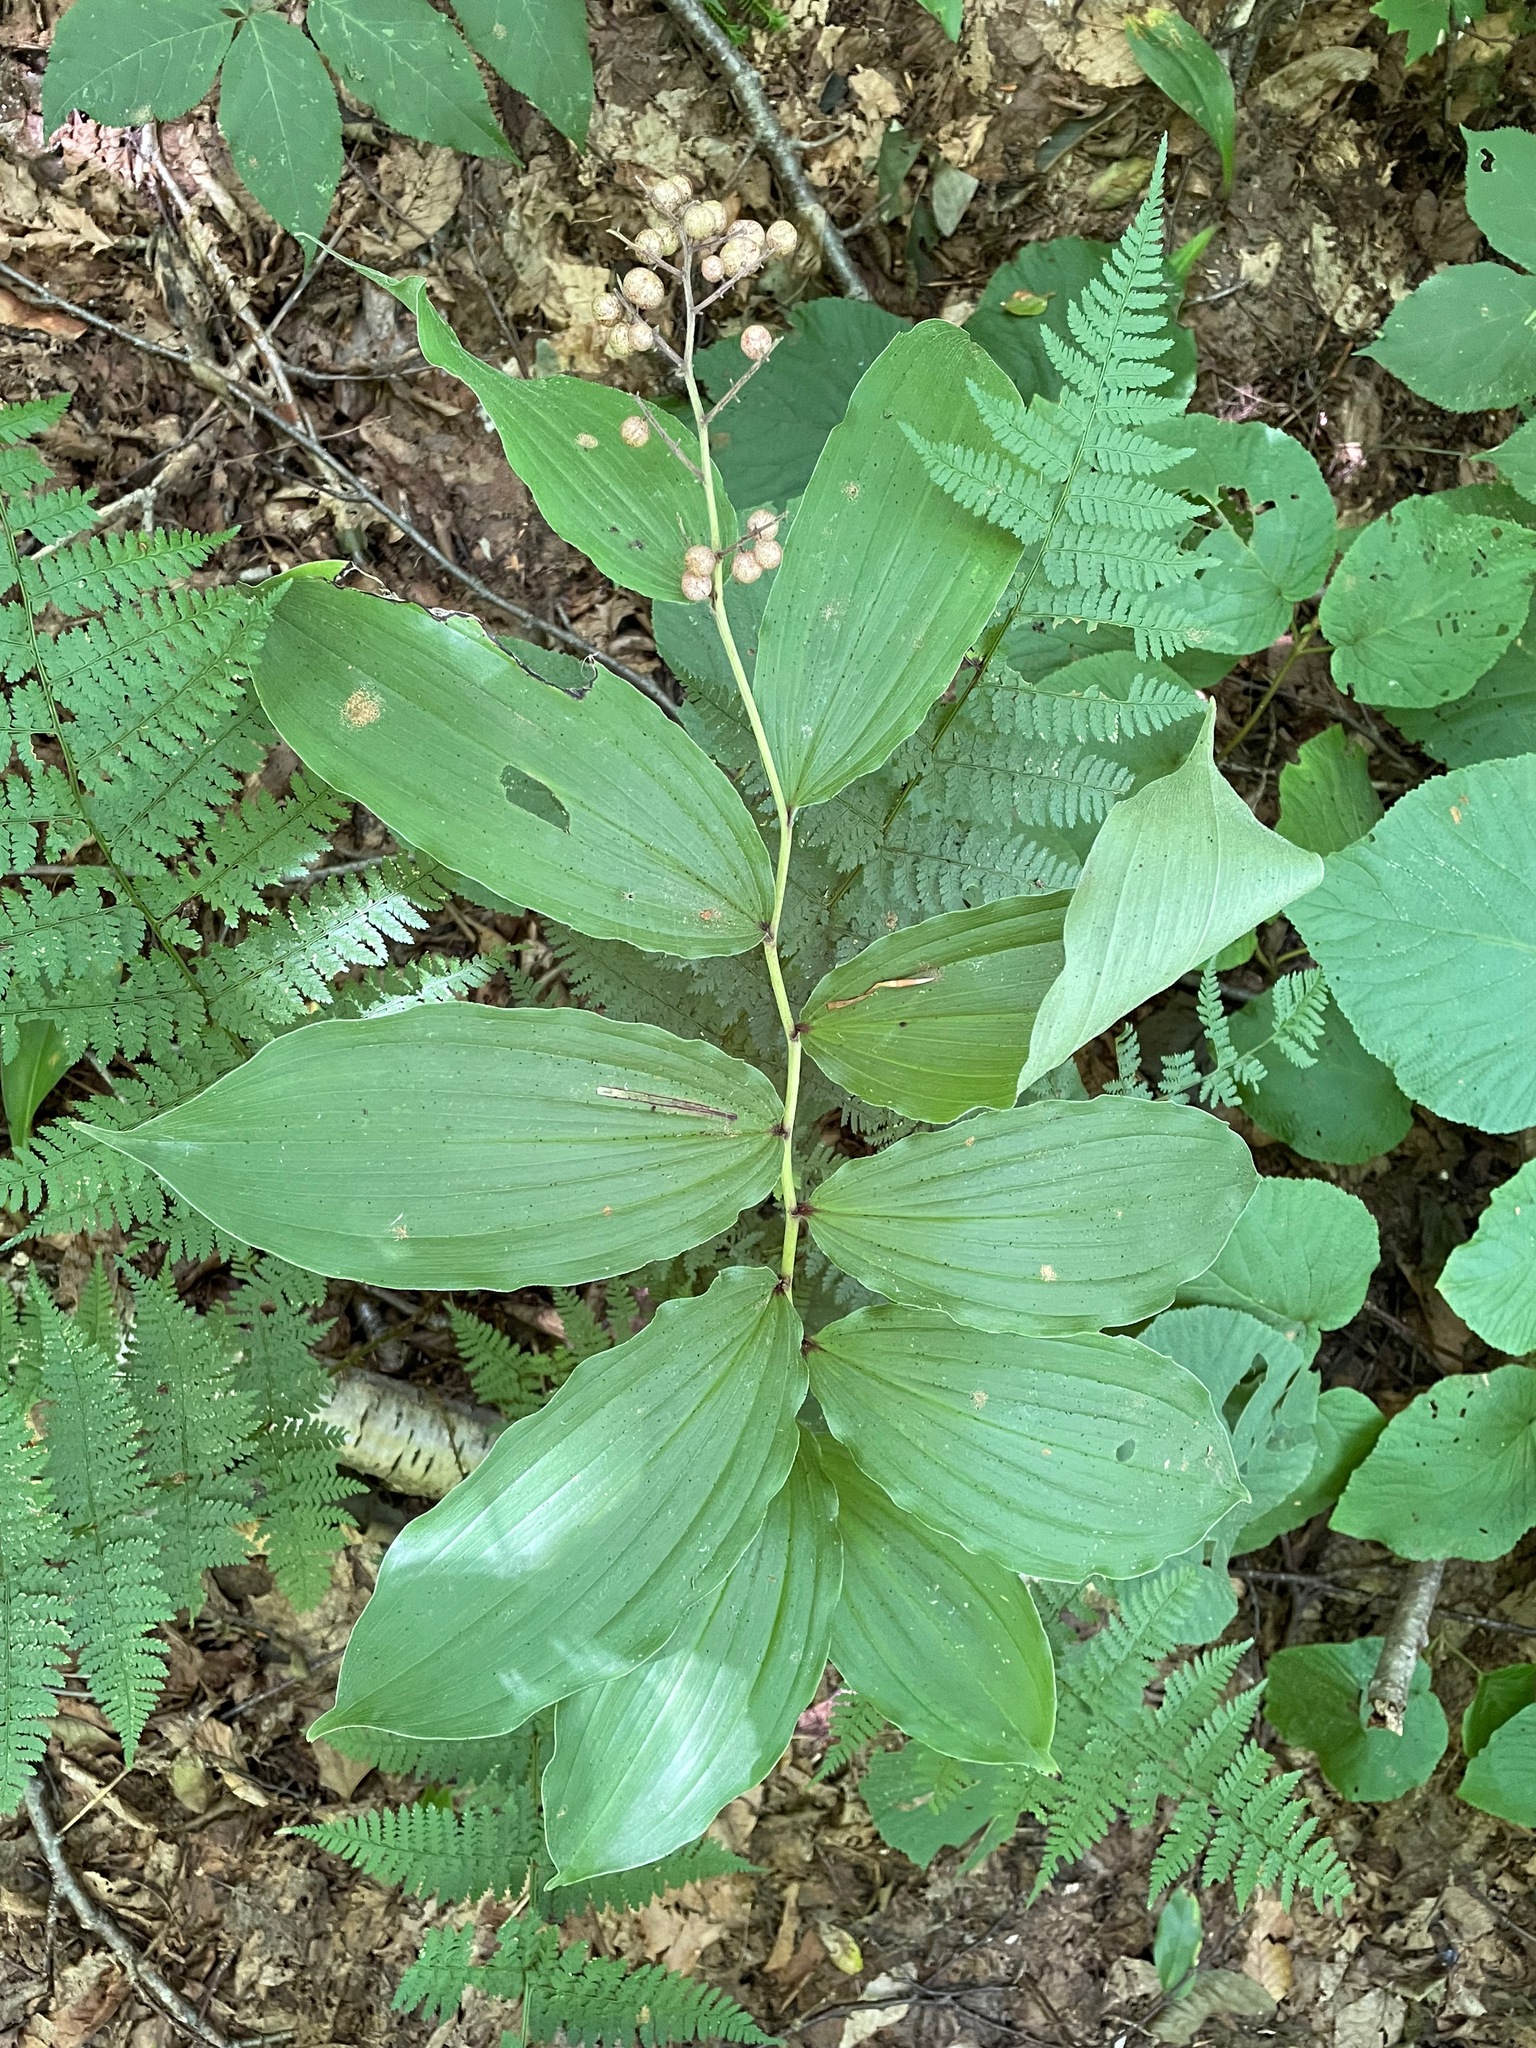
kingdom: Plantae
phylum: Tracheophyta
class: Liliopsida
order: Asparagales
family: Asparagaceae
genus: Maianthemum
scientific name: Maianthemum racemosum
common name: False spikenard
